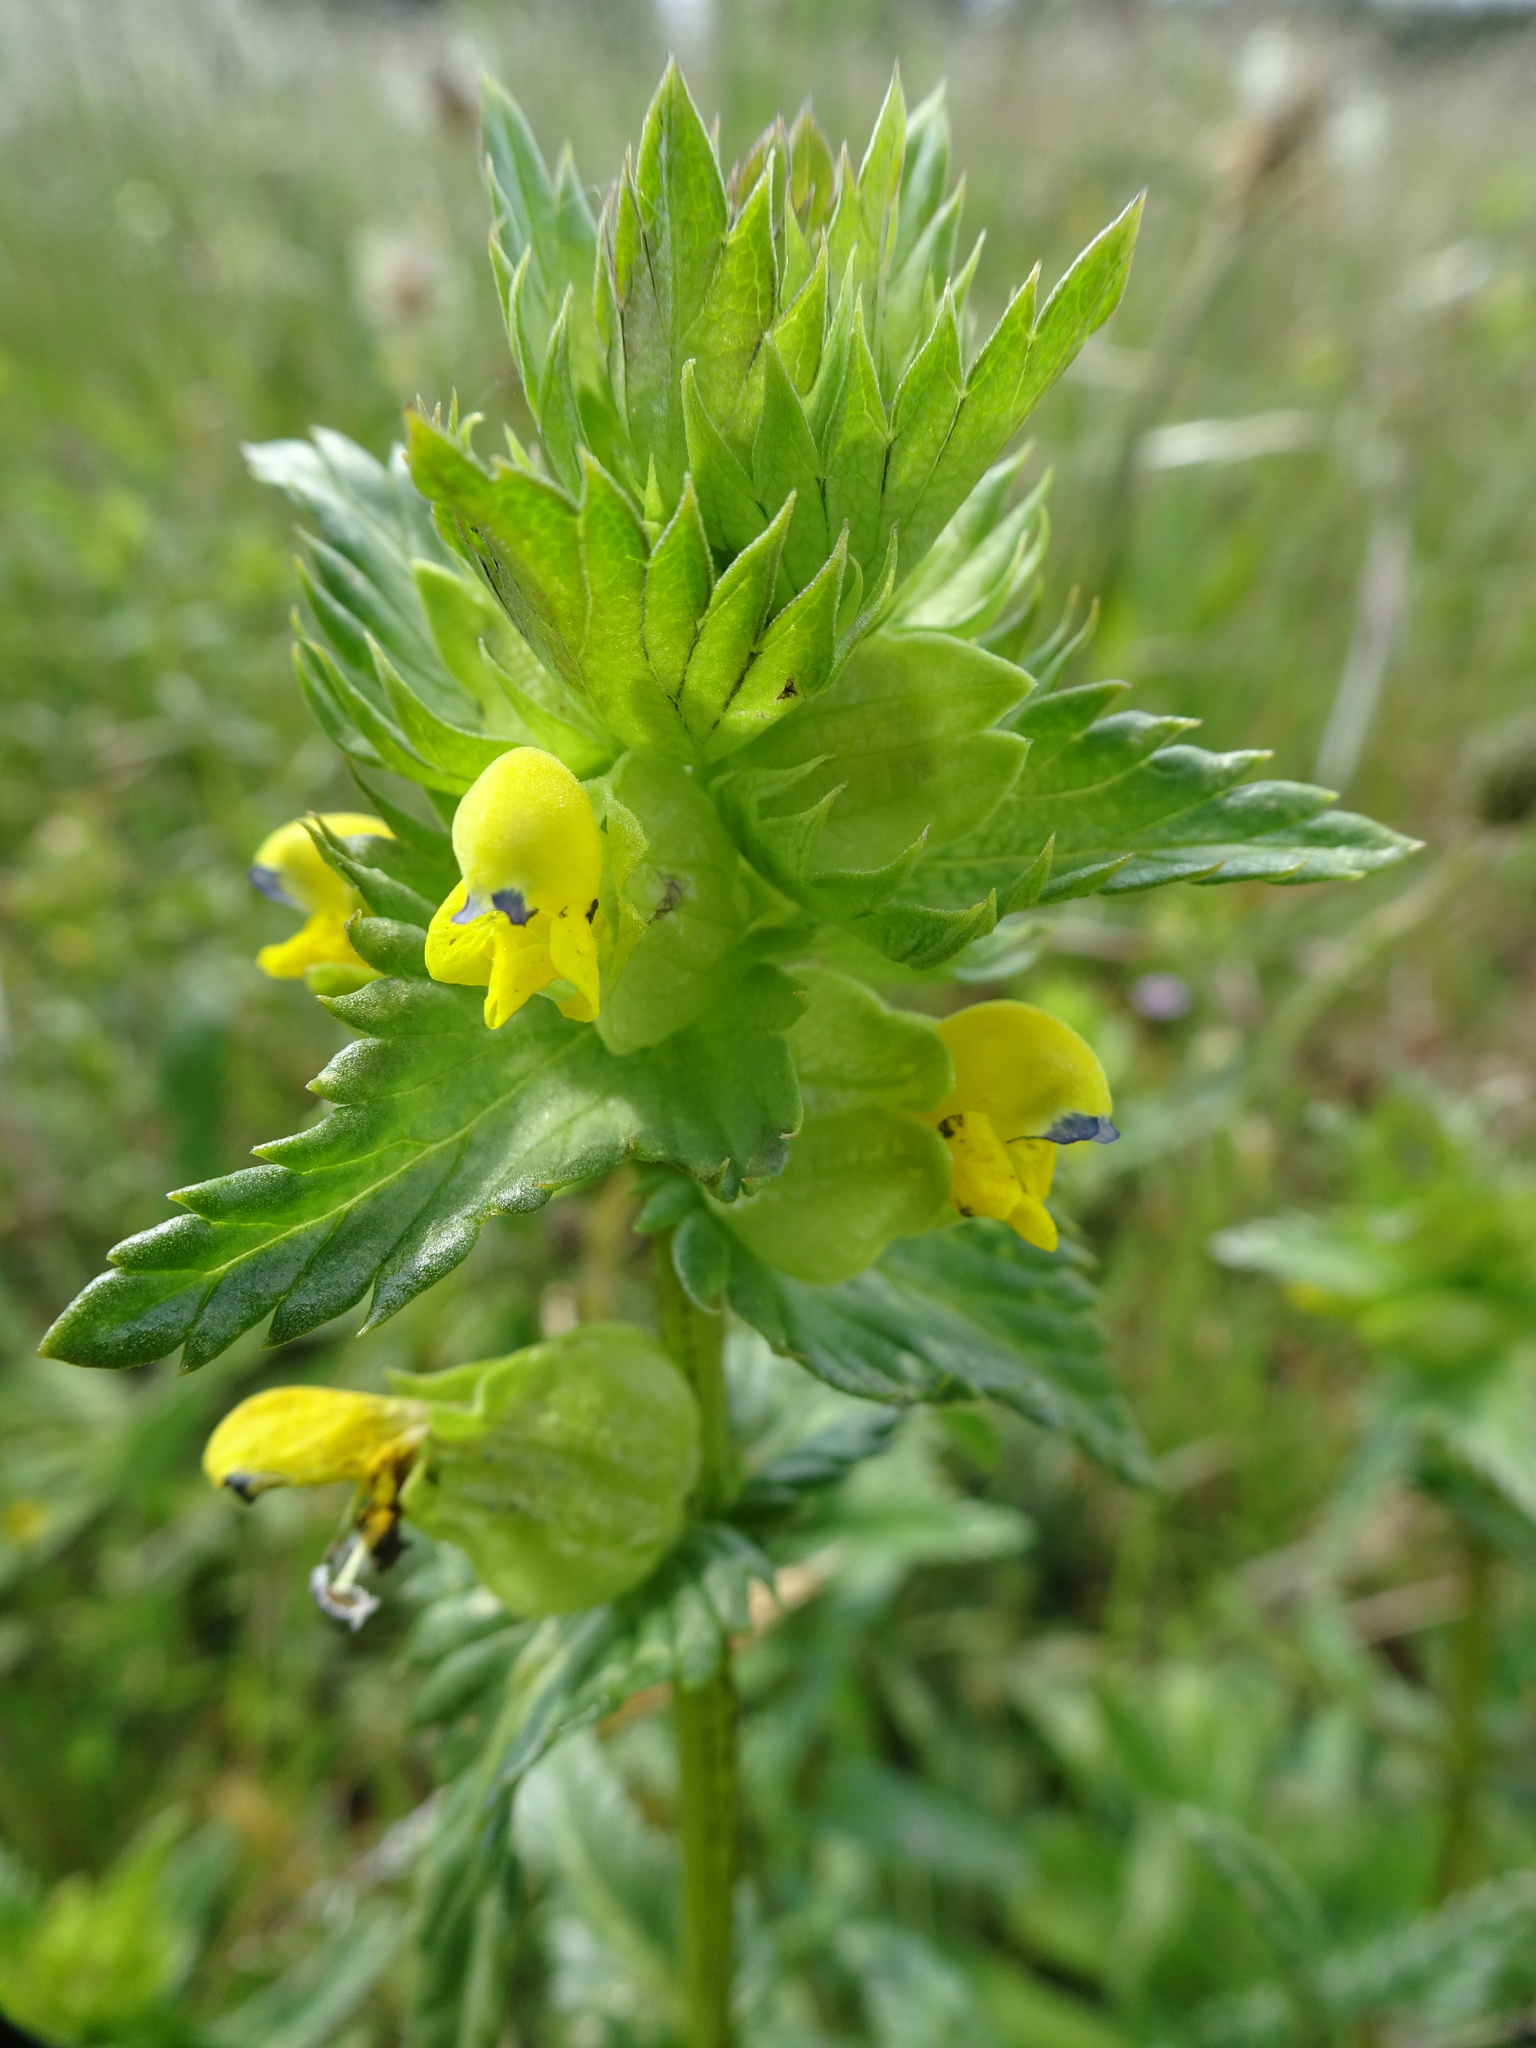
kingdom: Plantae
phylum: Tracheophyta
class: Magnoliopsida
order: Lamiales
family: Orobanchaceae
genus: Rhinanthus
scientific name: Rhinanthus minor
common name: Yellow-rattle
